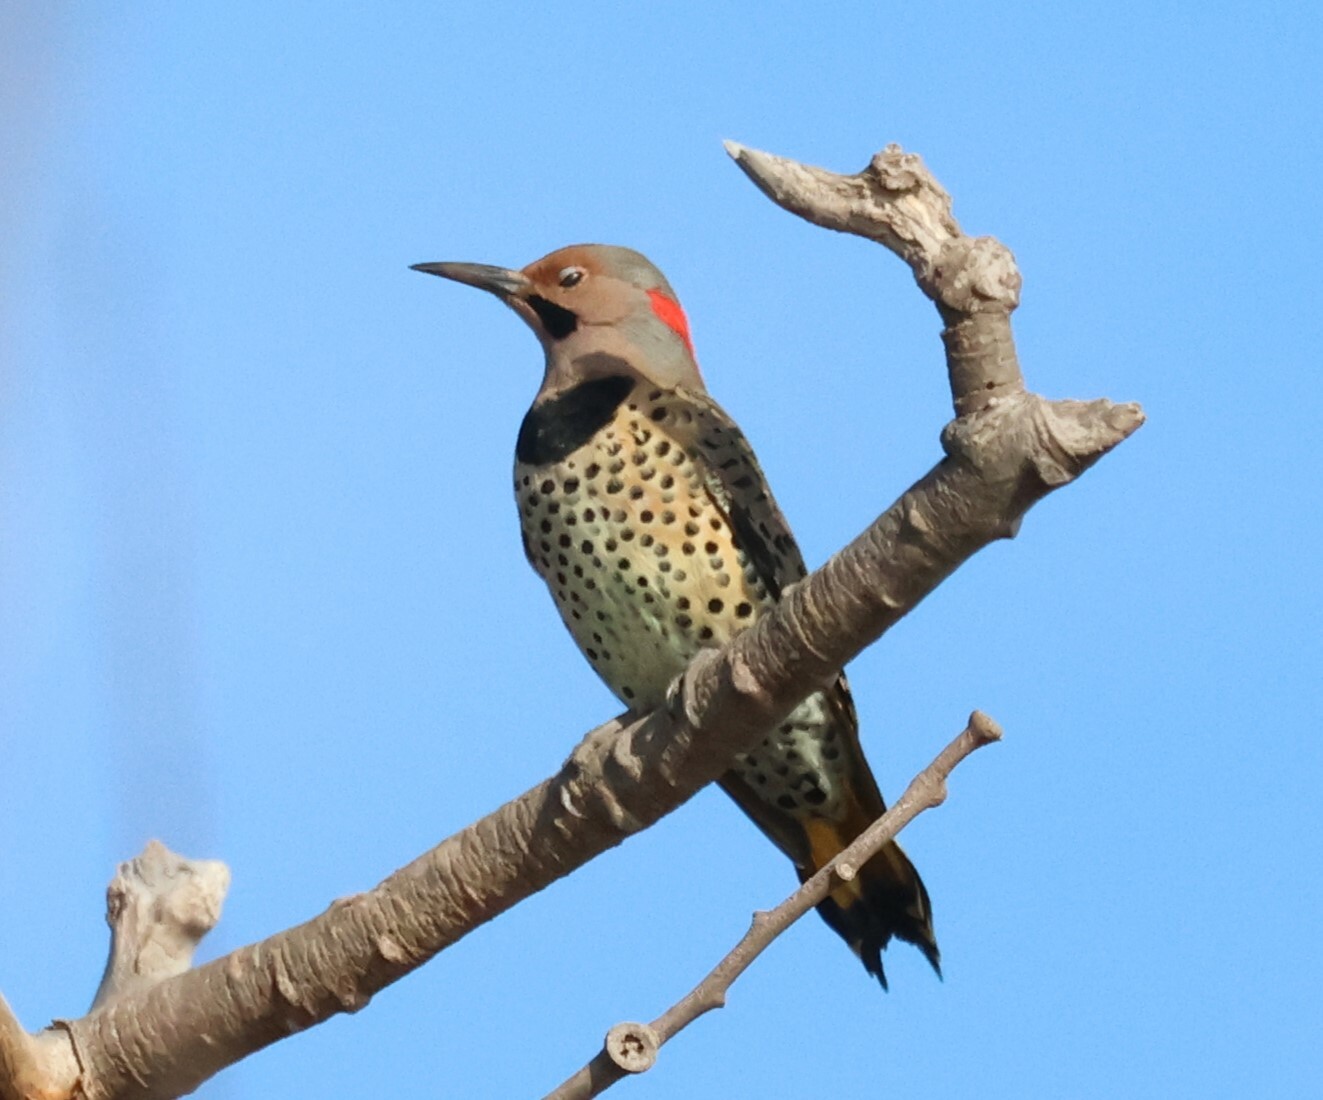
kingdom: Animalia
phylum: Chordata
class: Aves
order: Piciformes
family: Picidae
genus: Colaptes
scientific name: Colaptes auratus
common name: Northern flicker
